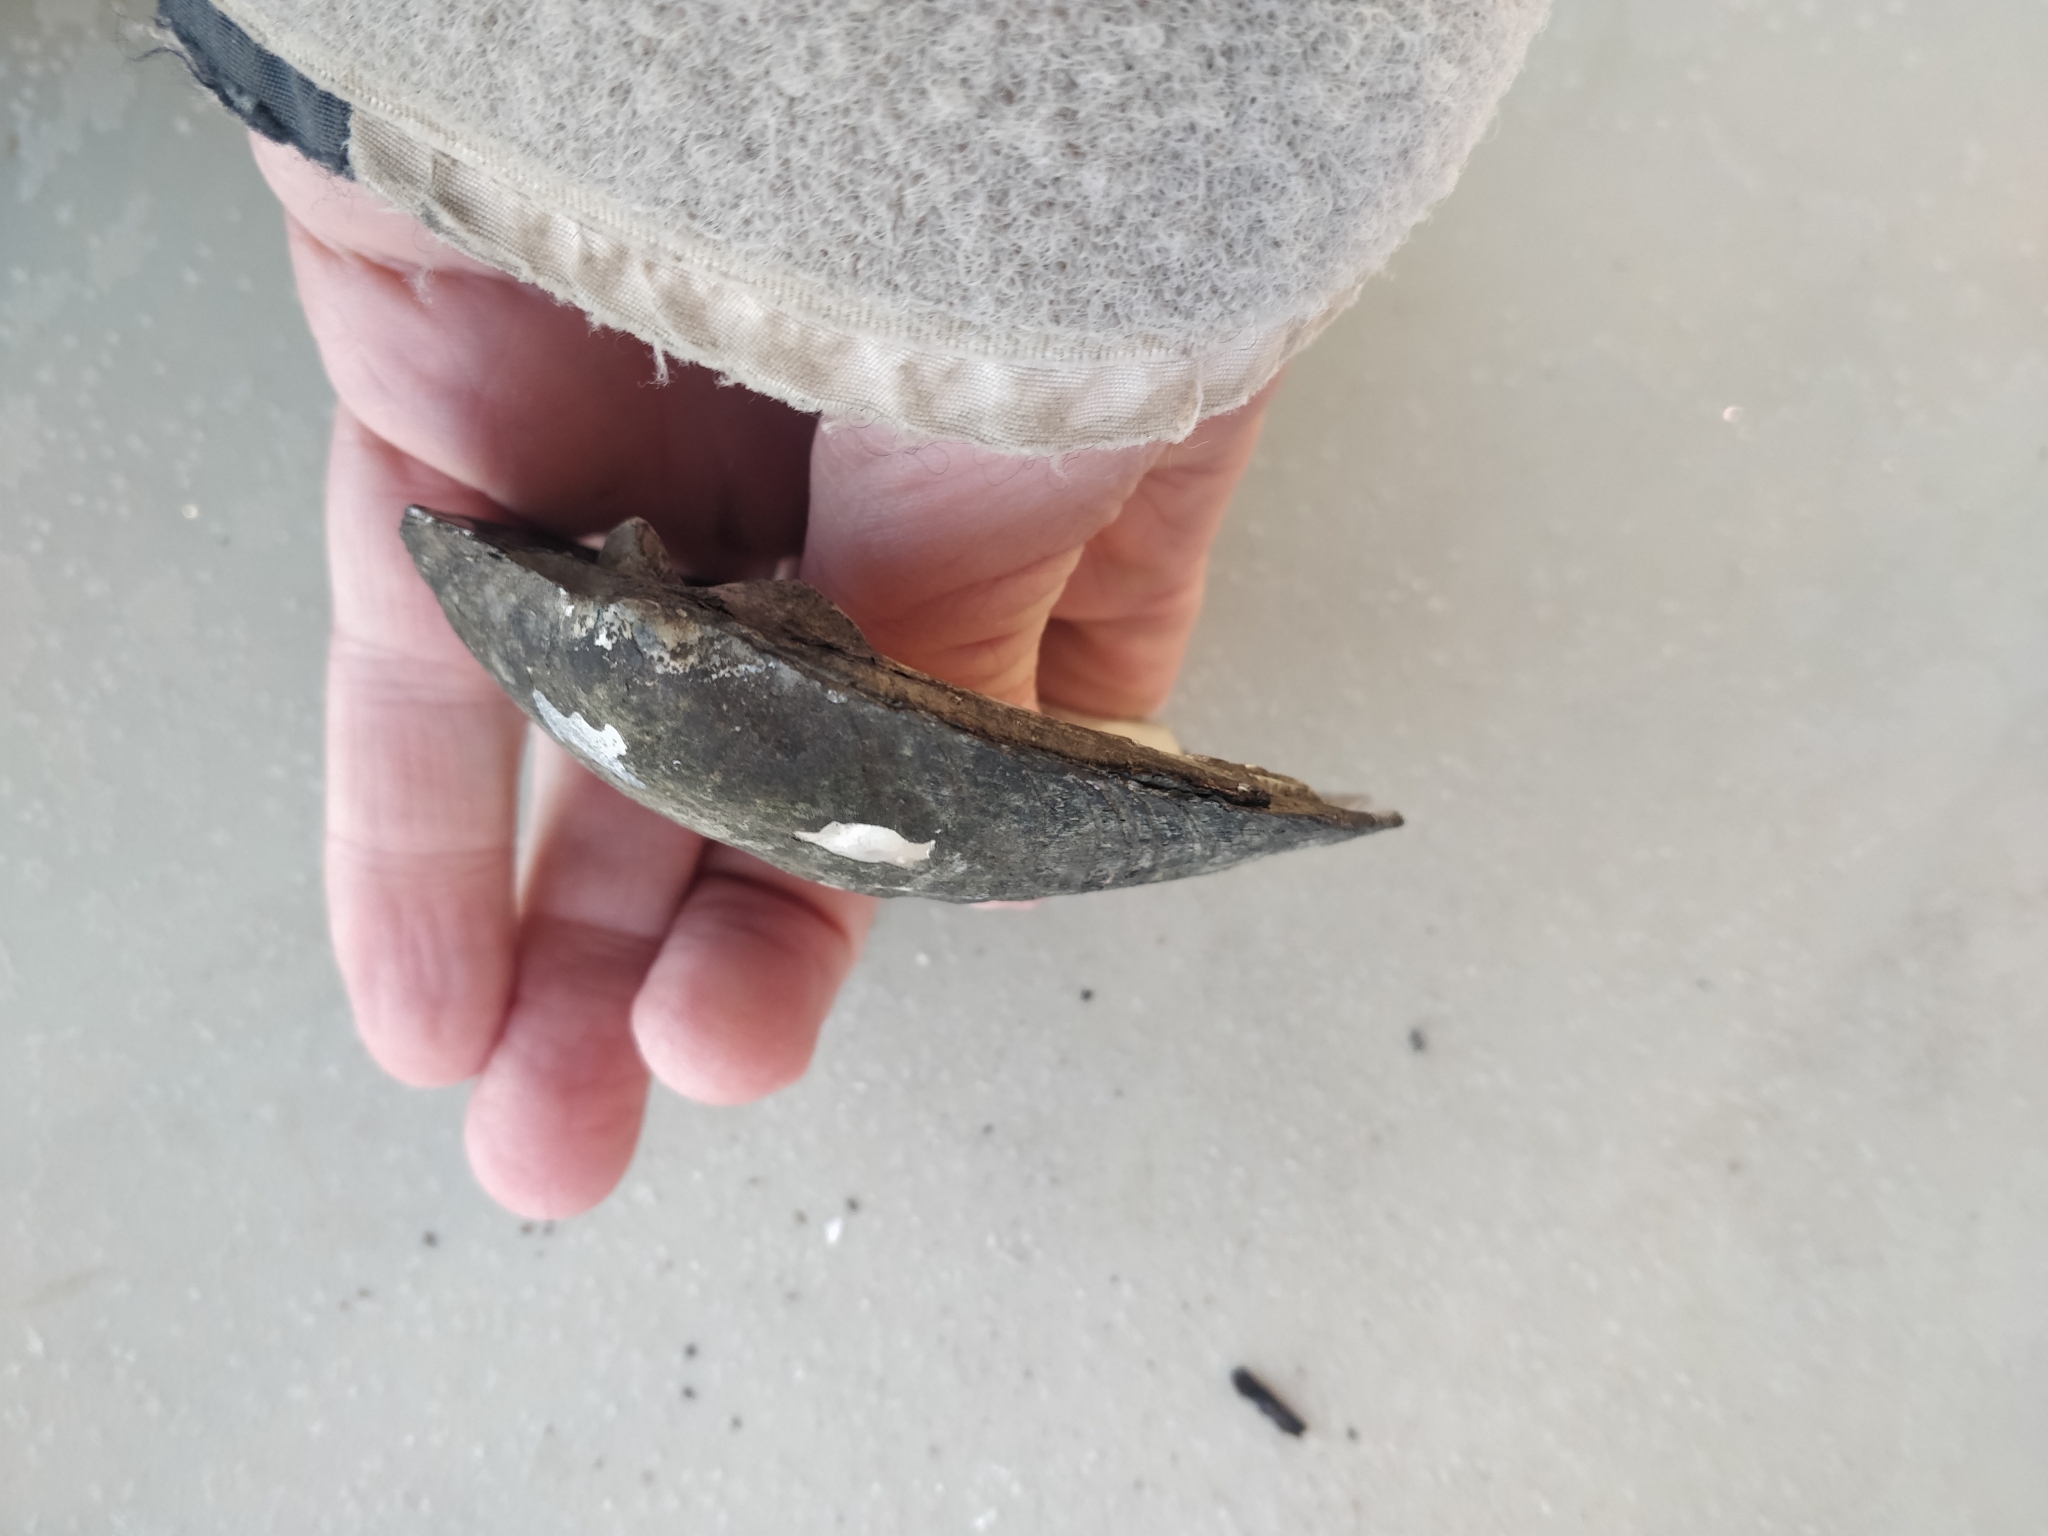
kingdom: Animalia
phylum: Mollusca
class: Bivalvia
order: Unionida
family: Unionidae
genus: Amblema
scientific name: Amblema plicata
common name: Threeridge
